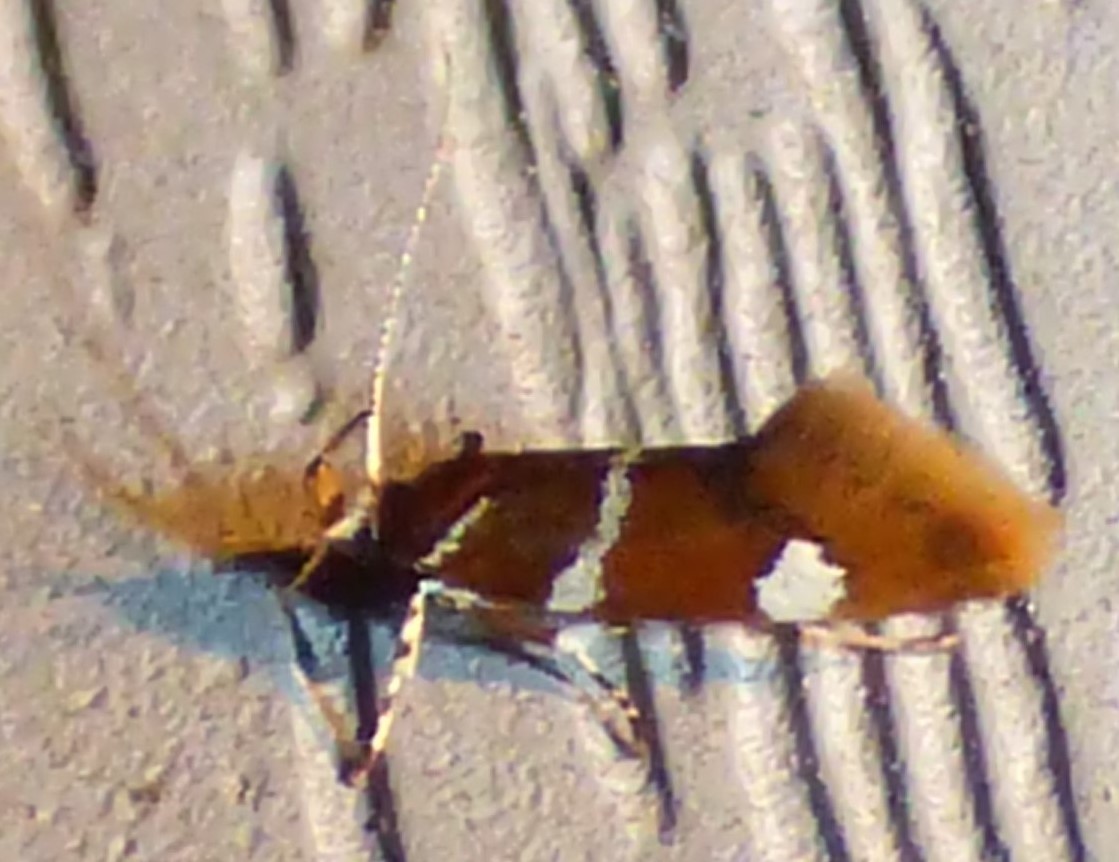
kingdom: Animalia
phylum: Arthropoda
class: Insecta
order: Lepidoptera
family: Oecophoridae
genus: Promalactis
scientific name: Promalactis suzukiella
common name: Moth
